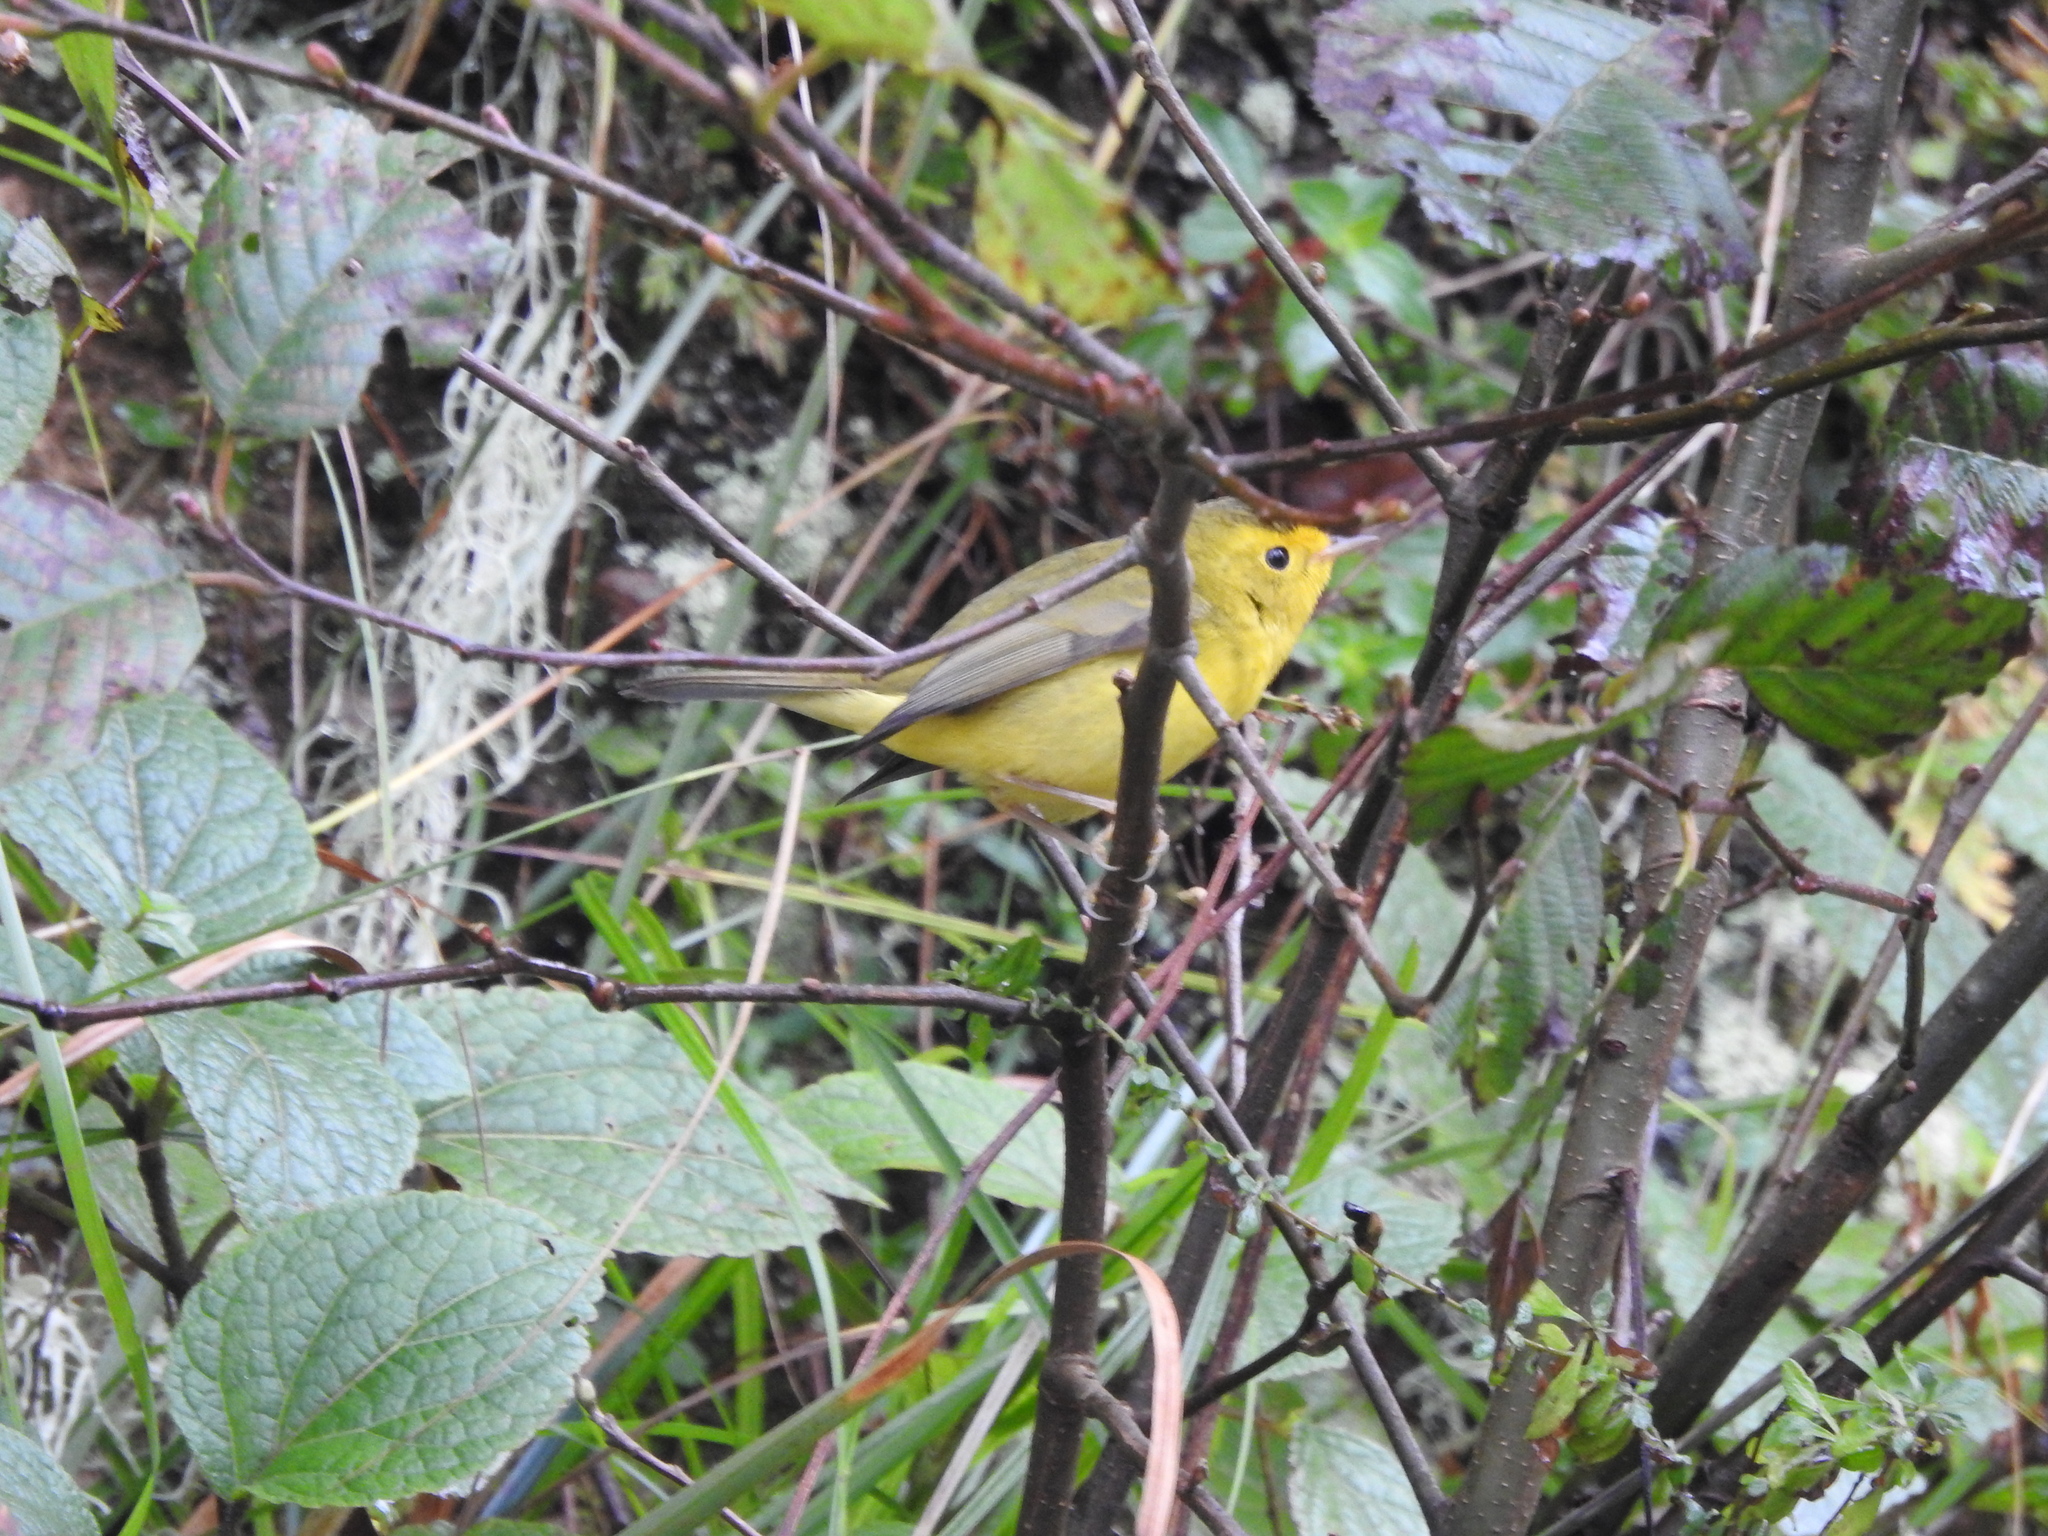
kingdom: Animalia
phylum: Chordata
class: Aves
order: Passeriformes
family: Parulidae
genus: Cardellina
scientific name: Cardellina pusilla
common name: Wilson's warbler
